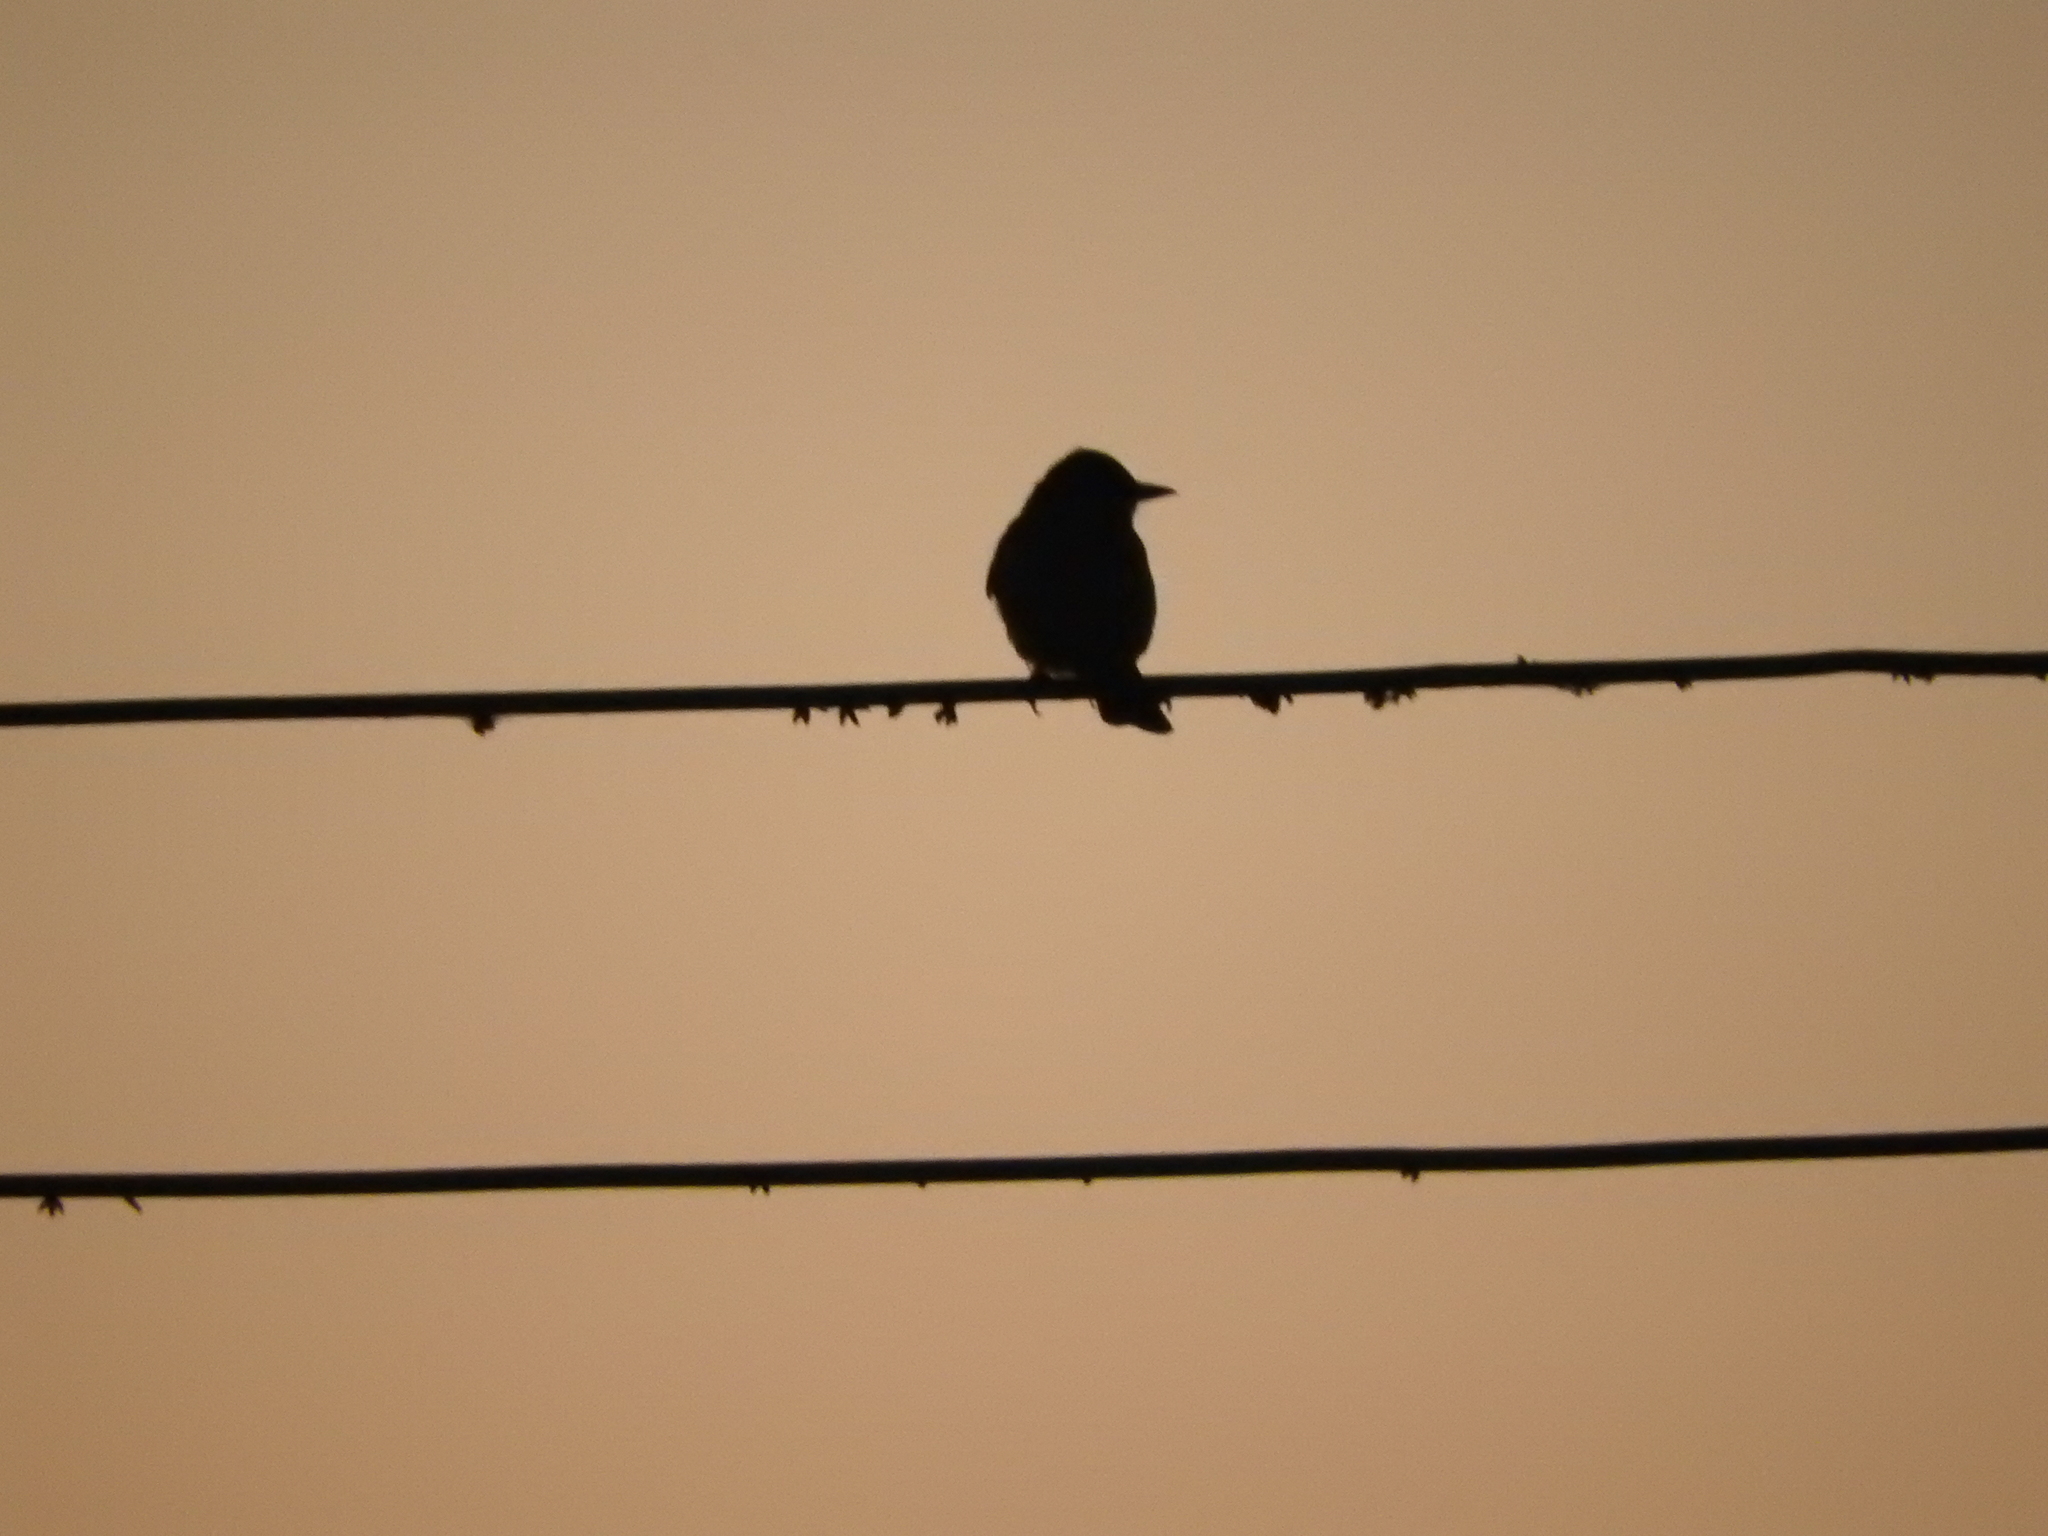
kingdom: Animalia
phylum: Chordata
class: Aves
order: Passeriformes
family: Tyrannidae
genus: Tyrannus
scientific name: Tyrannus vociferans
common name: Cassin's kingbird
